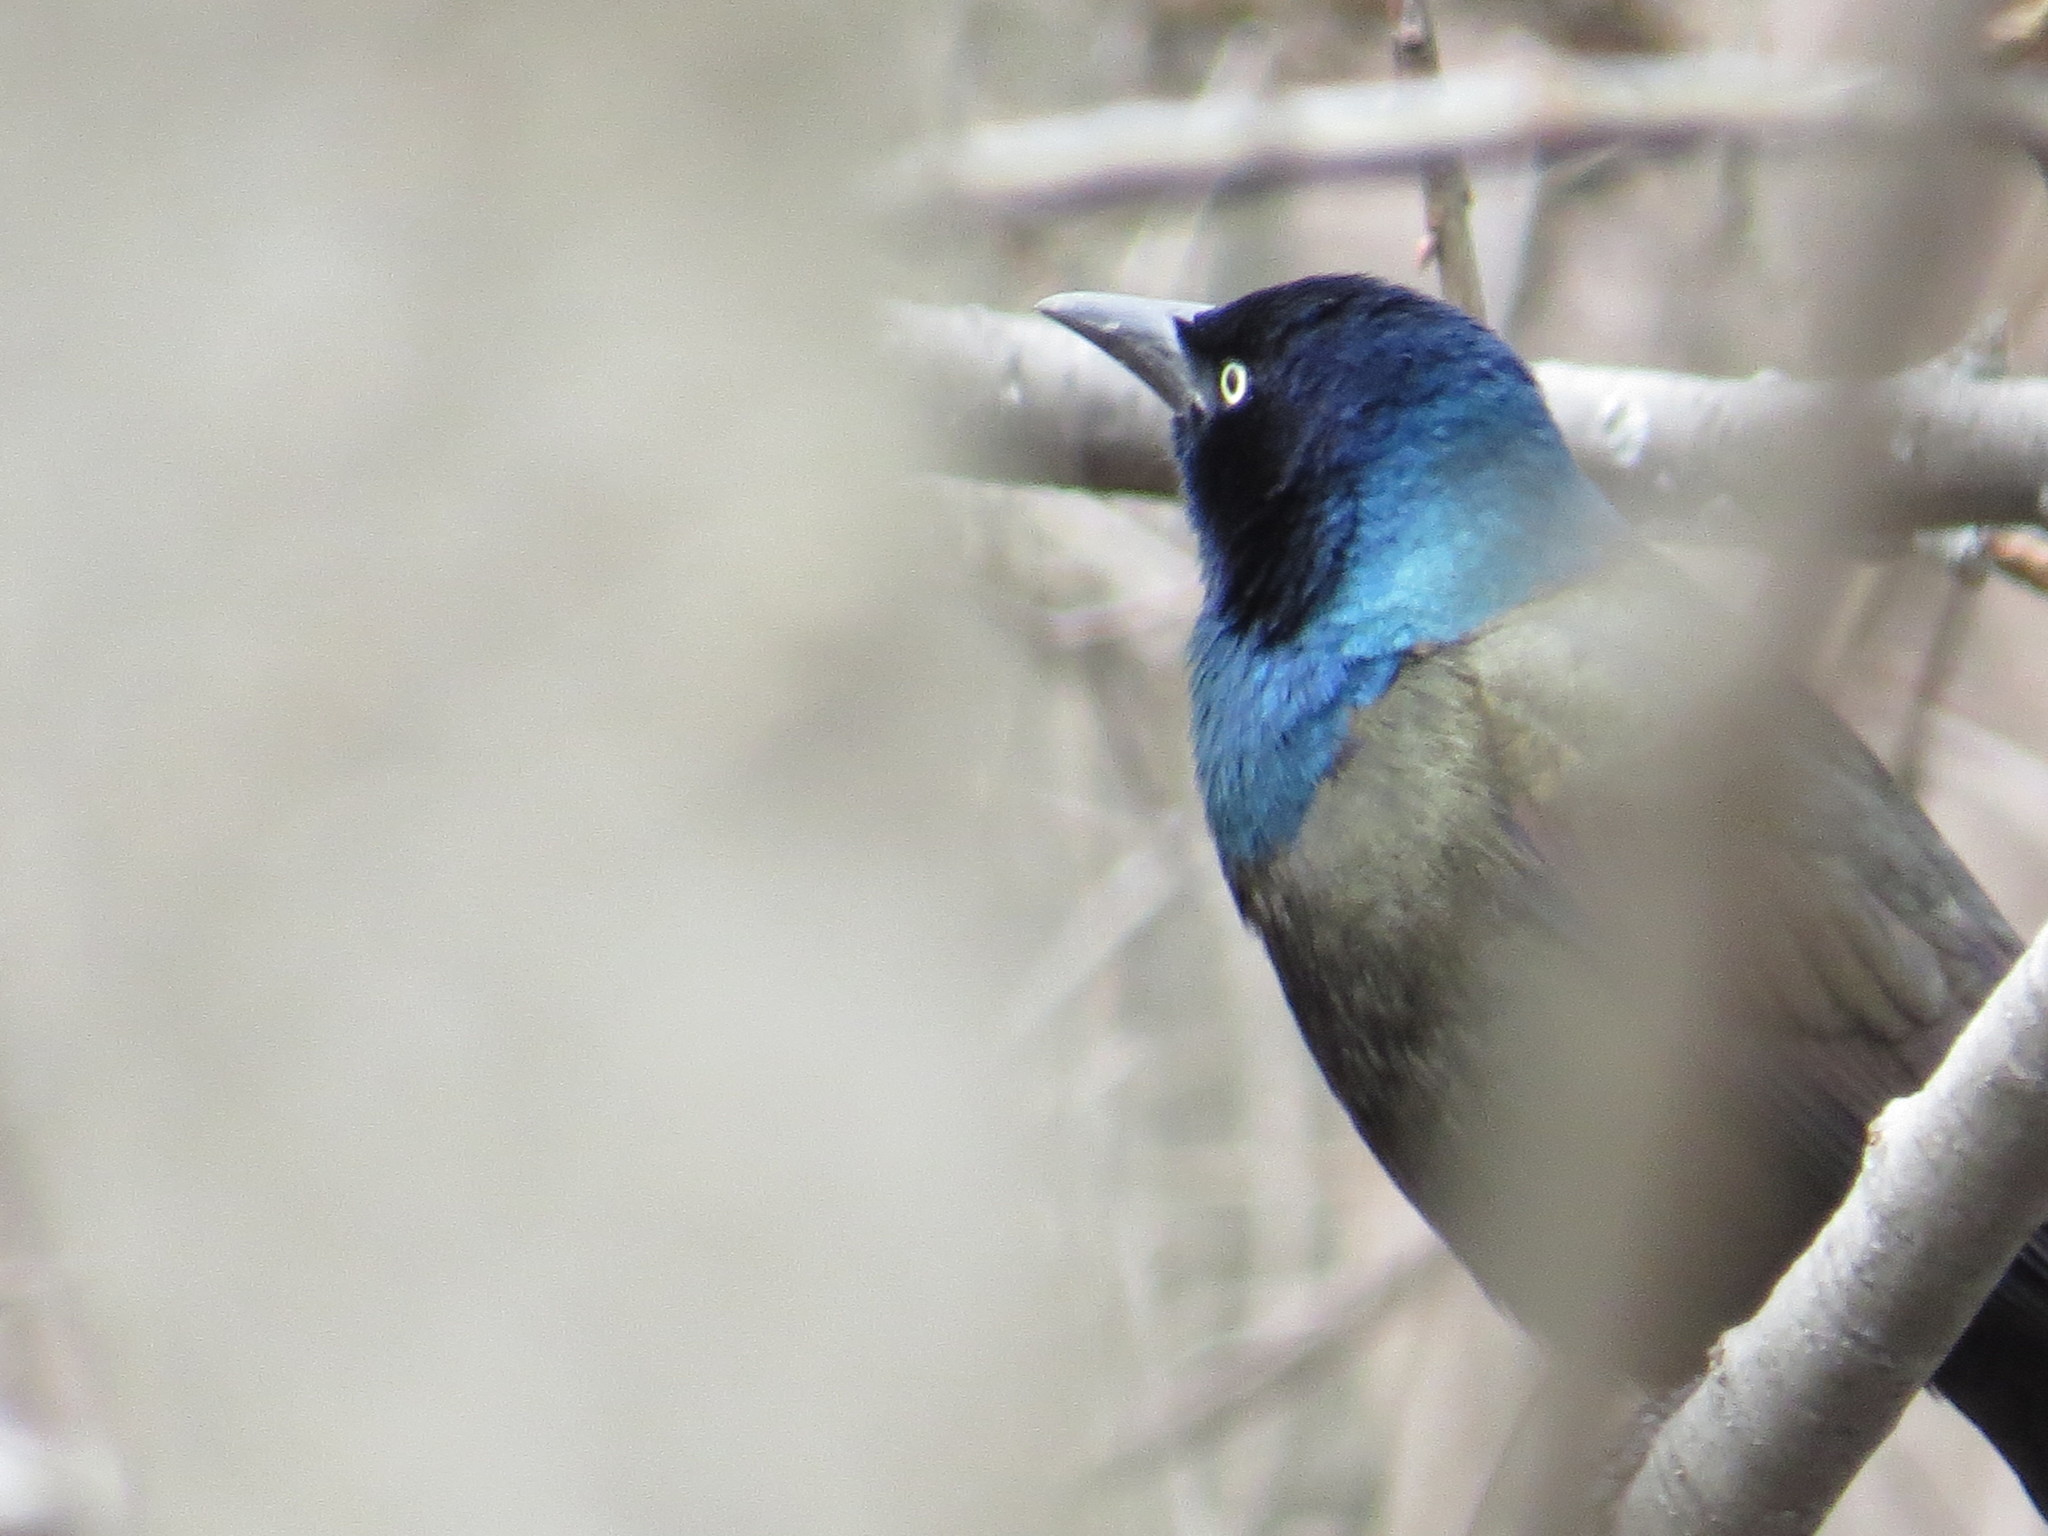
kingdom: Animalia
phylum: Chordata
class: Aves
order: Passeriformes
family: Icteridae
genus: Quiscalus
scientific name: Quiscalus quiscula
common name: Common grackle
